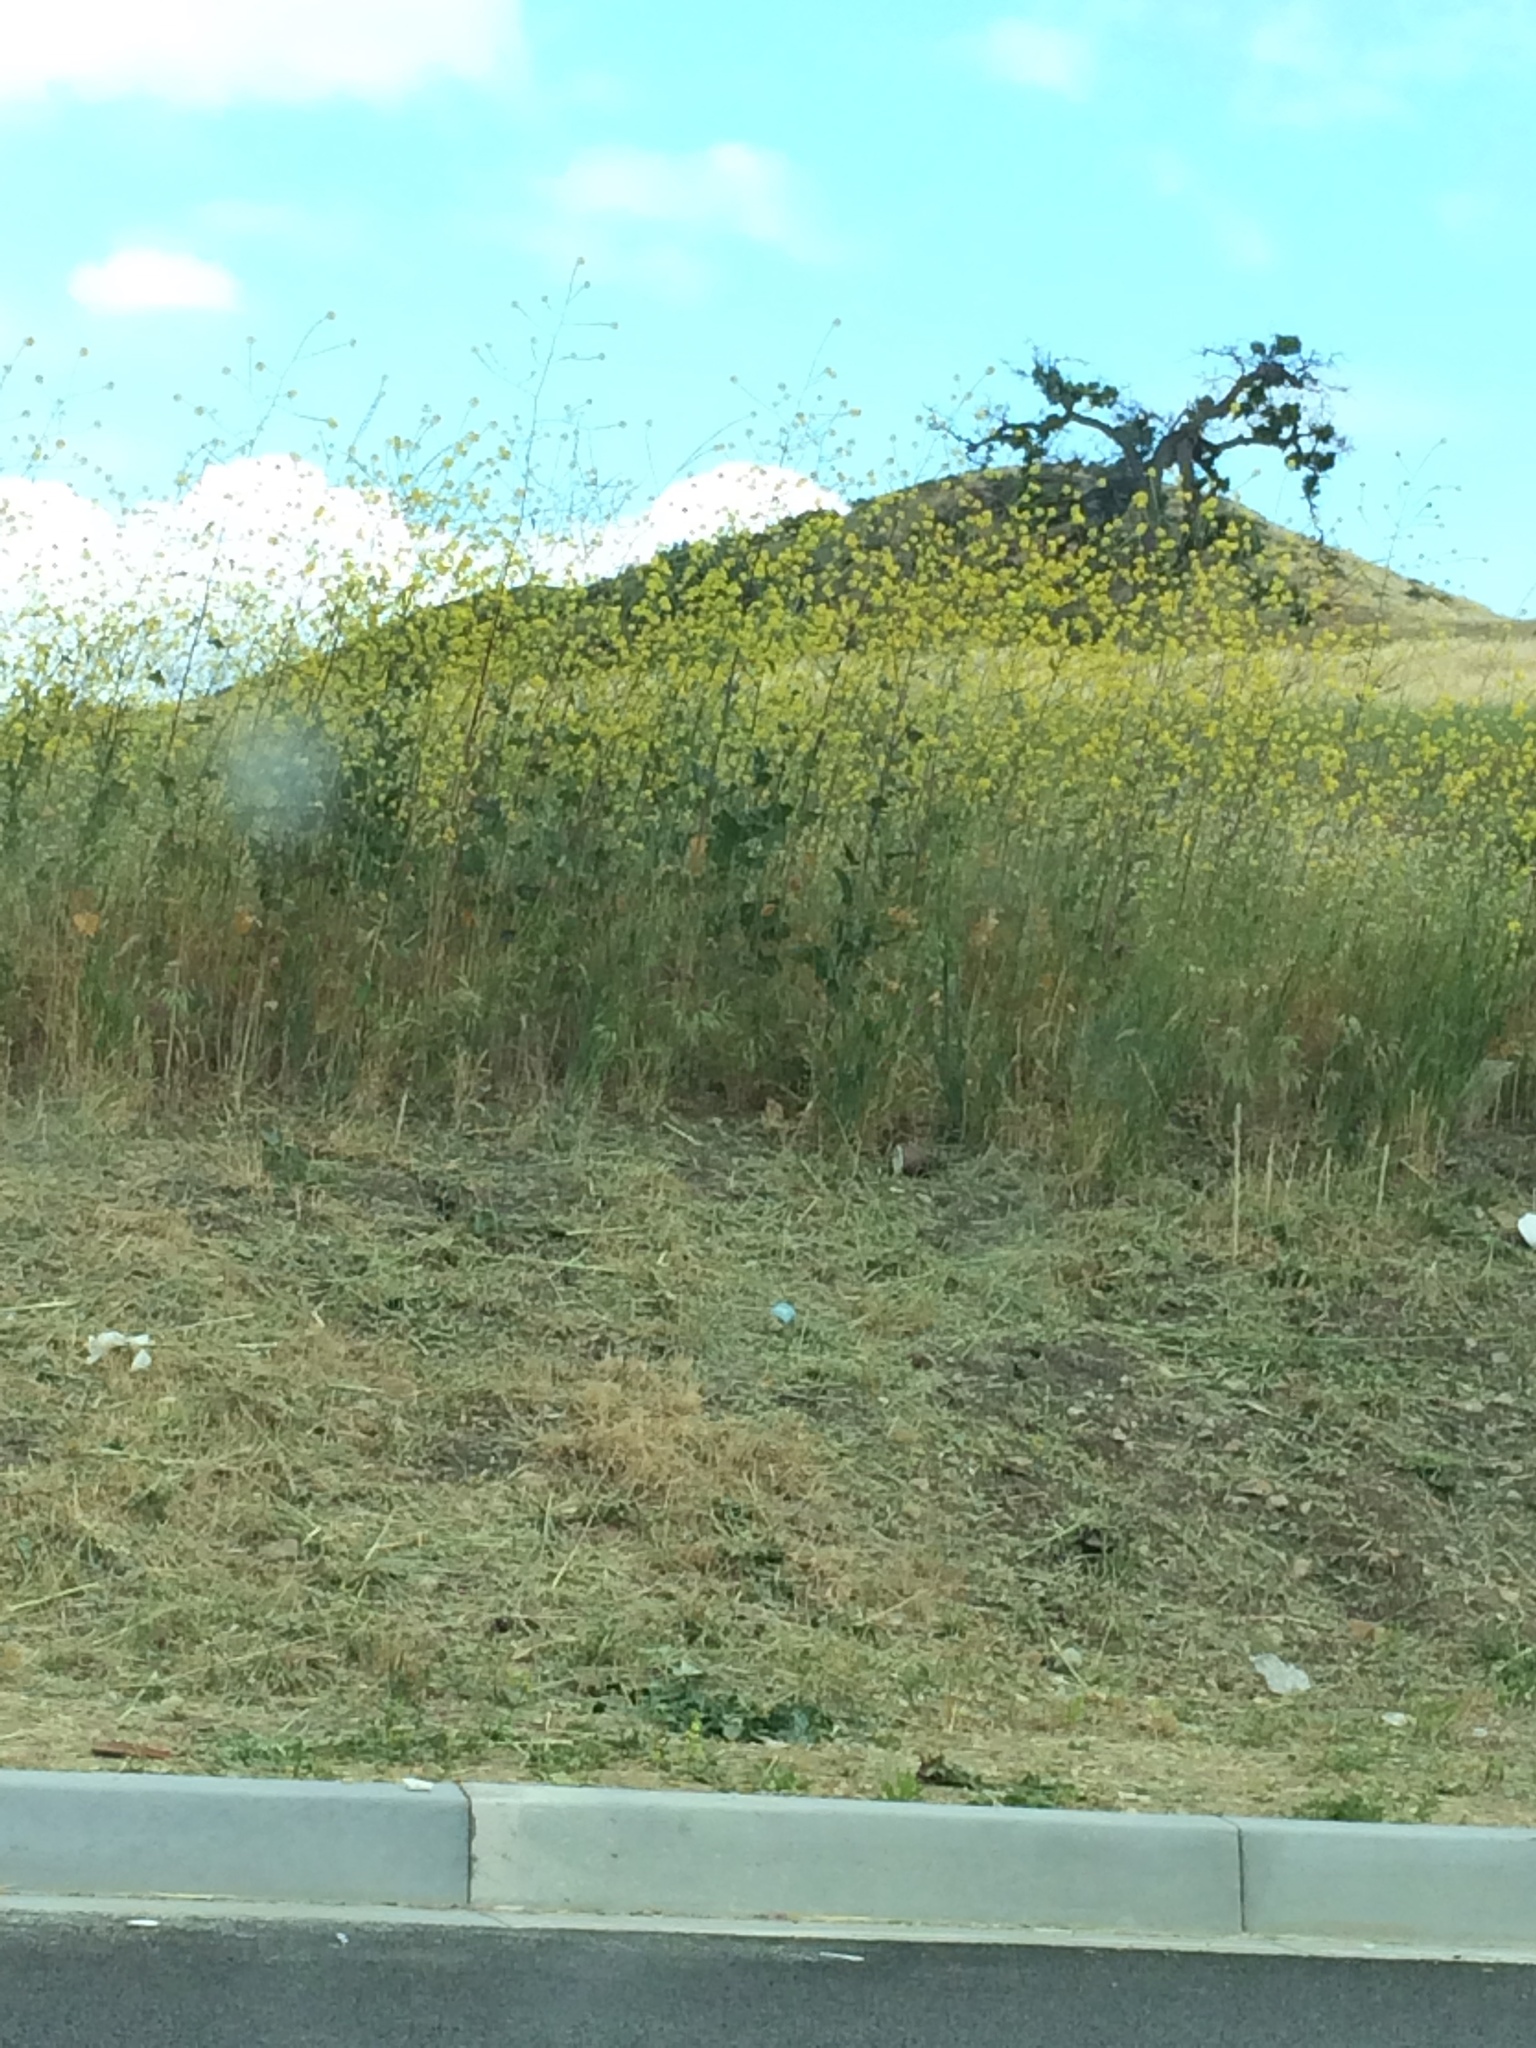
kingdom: Plantae
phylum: Tracheophyta
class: Magnoliopsida
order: Brassicales
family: Brassicaceae
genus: Brassica
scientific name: Brassica nigra
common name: Black mustard
